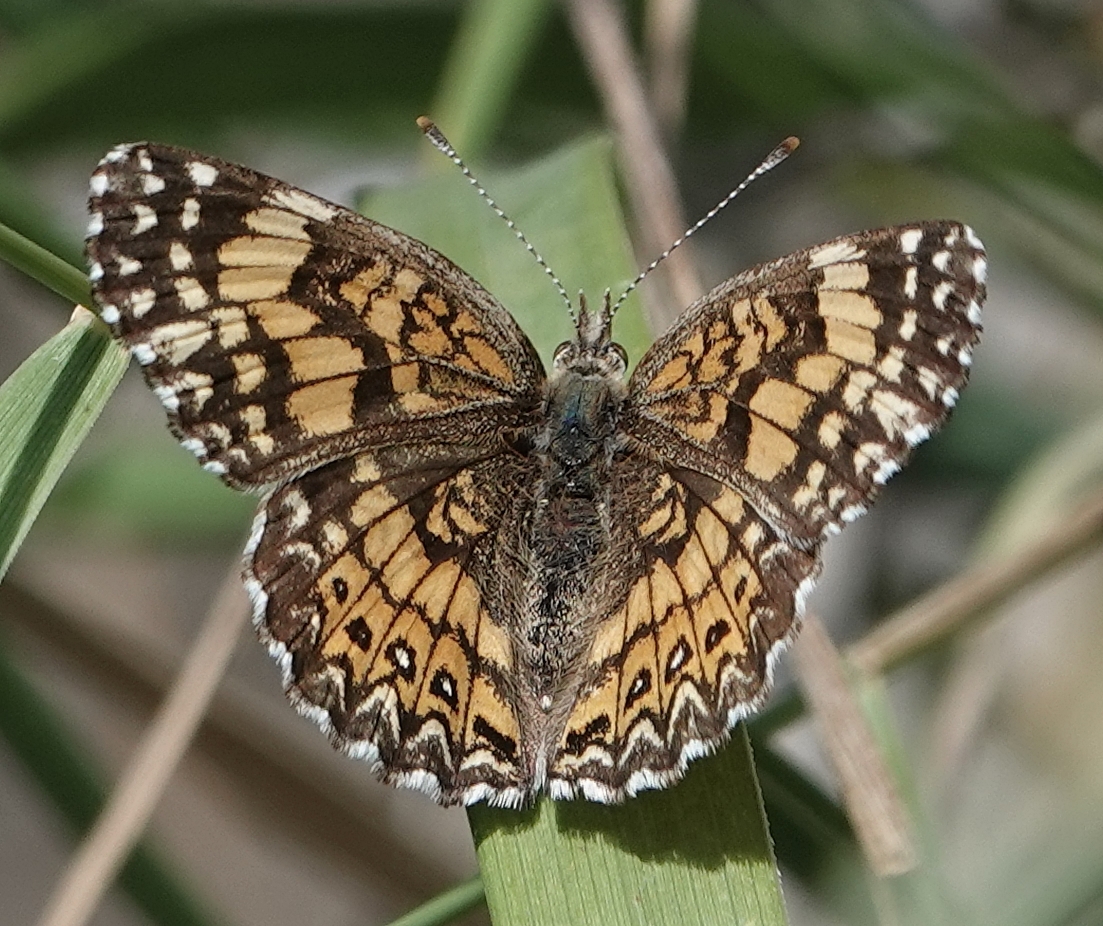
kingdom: Animalia
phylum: Arthropoda
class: Insecta
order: Lepidoptera
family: Nymphalidae
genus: Chlosyne
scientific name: Chlosyne gorgone
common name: Gorgone checkerspot
